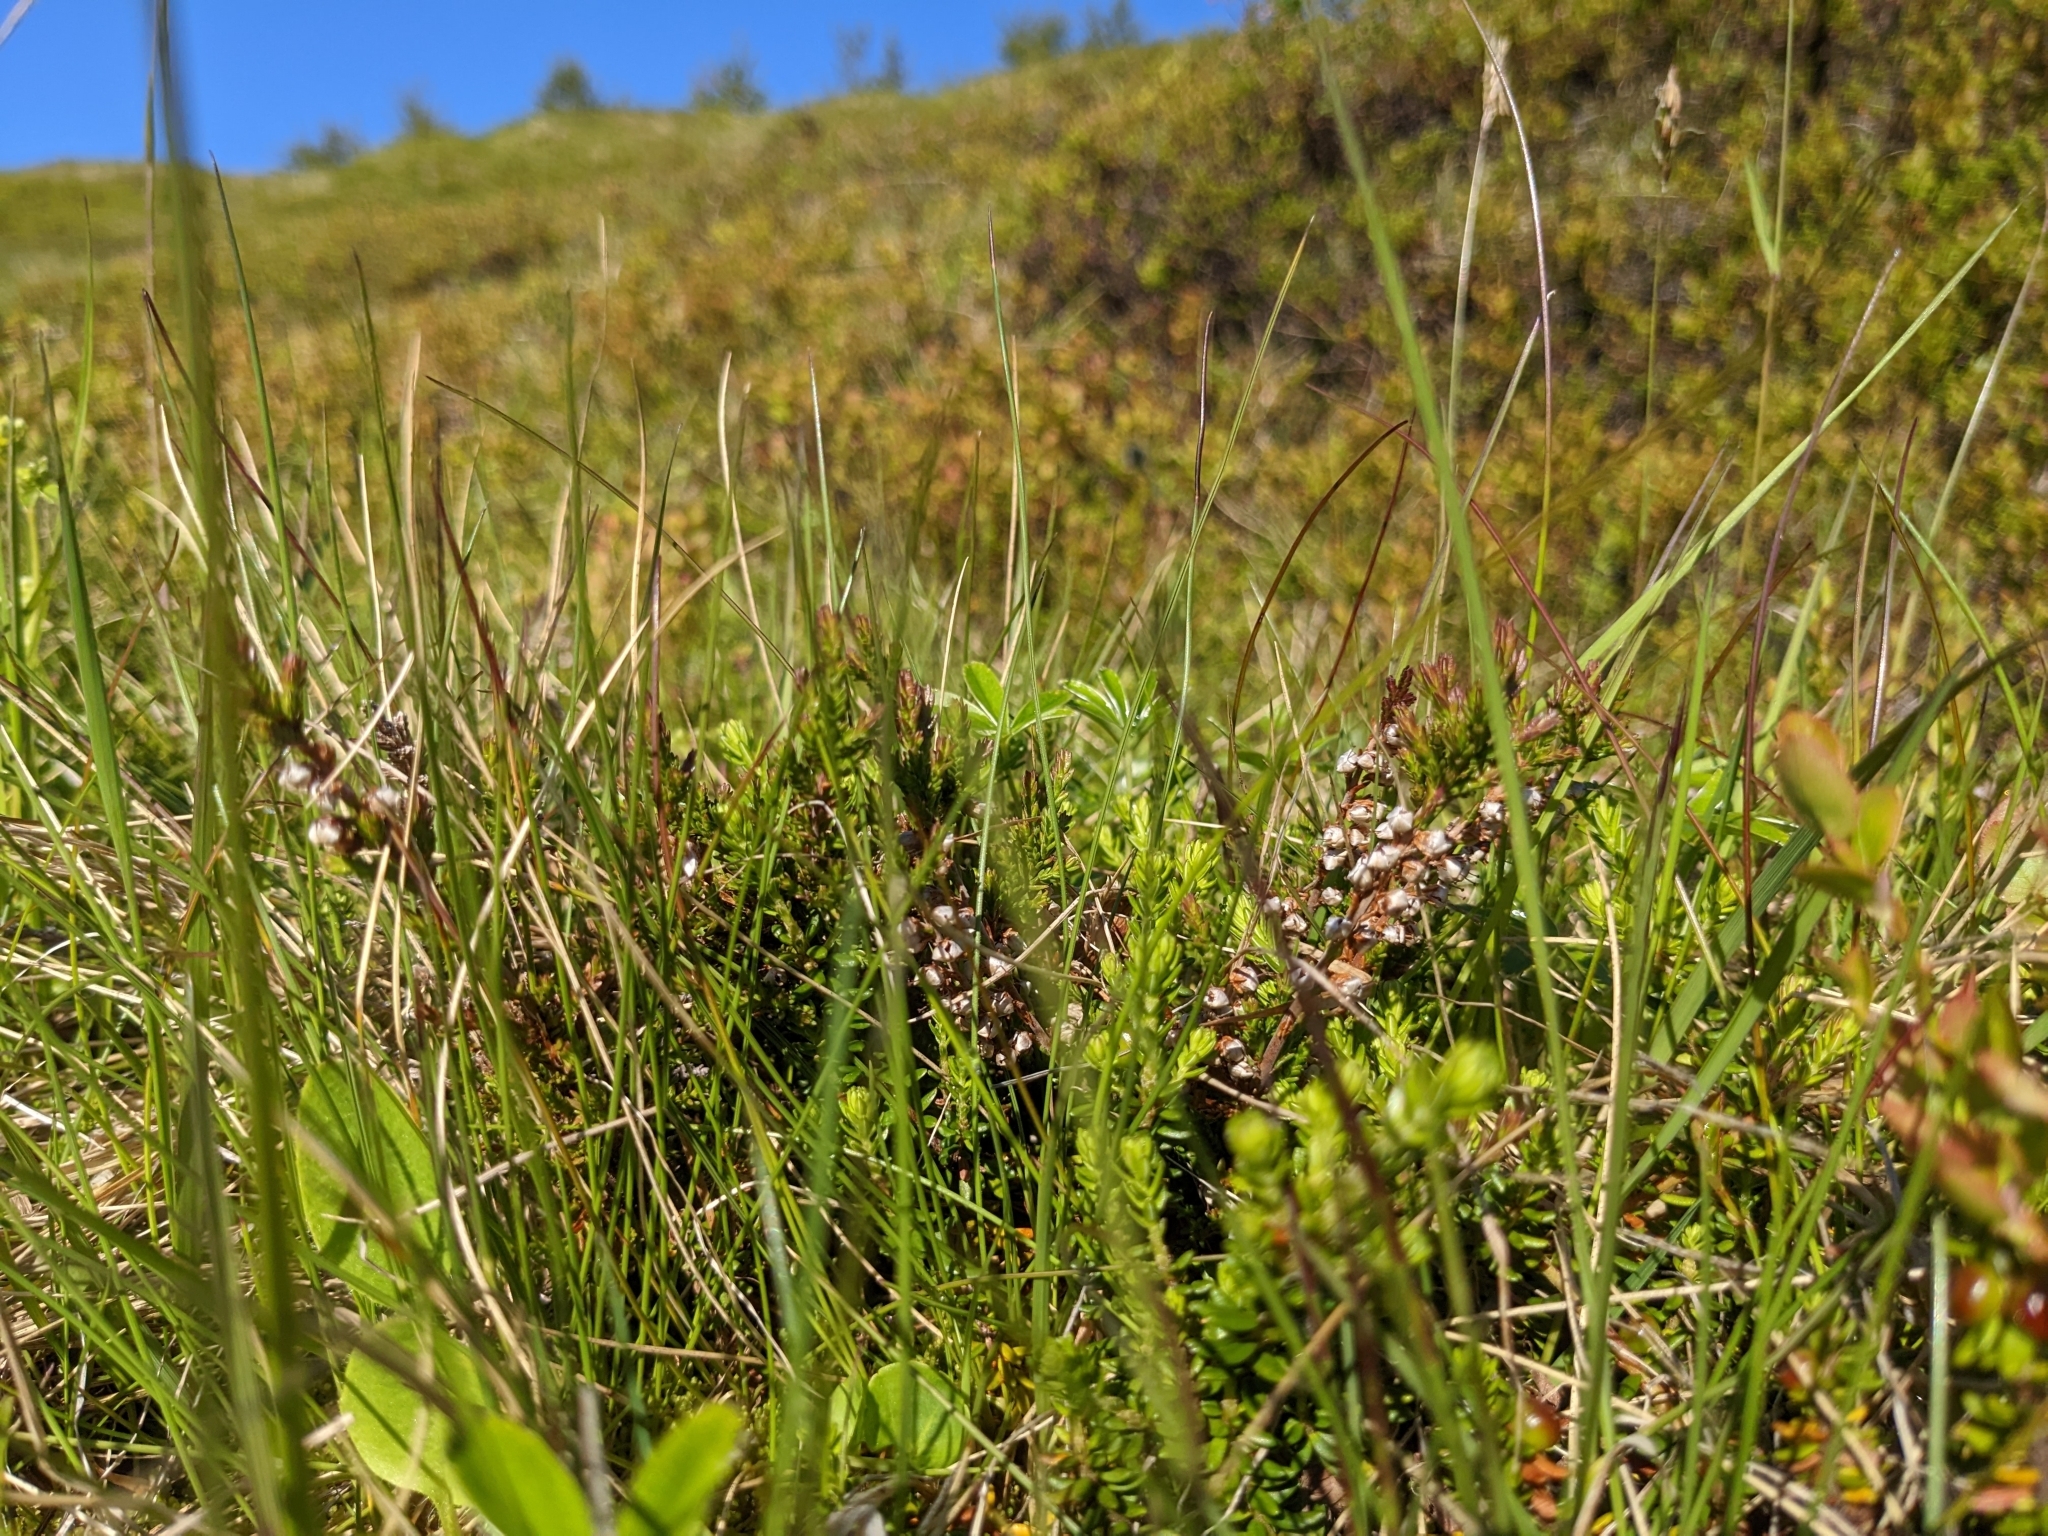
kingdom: Plantae
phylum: Tracheophyta
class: Magnoliopsida
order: Ericales
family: Ericaceae
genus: Calluna
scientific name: Calluna vulgaris
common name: Heather
